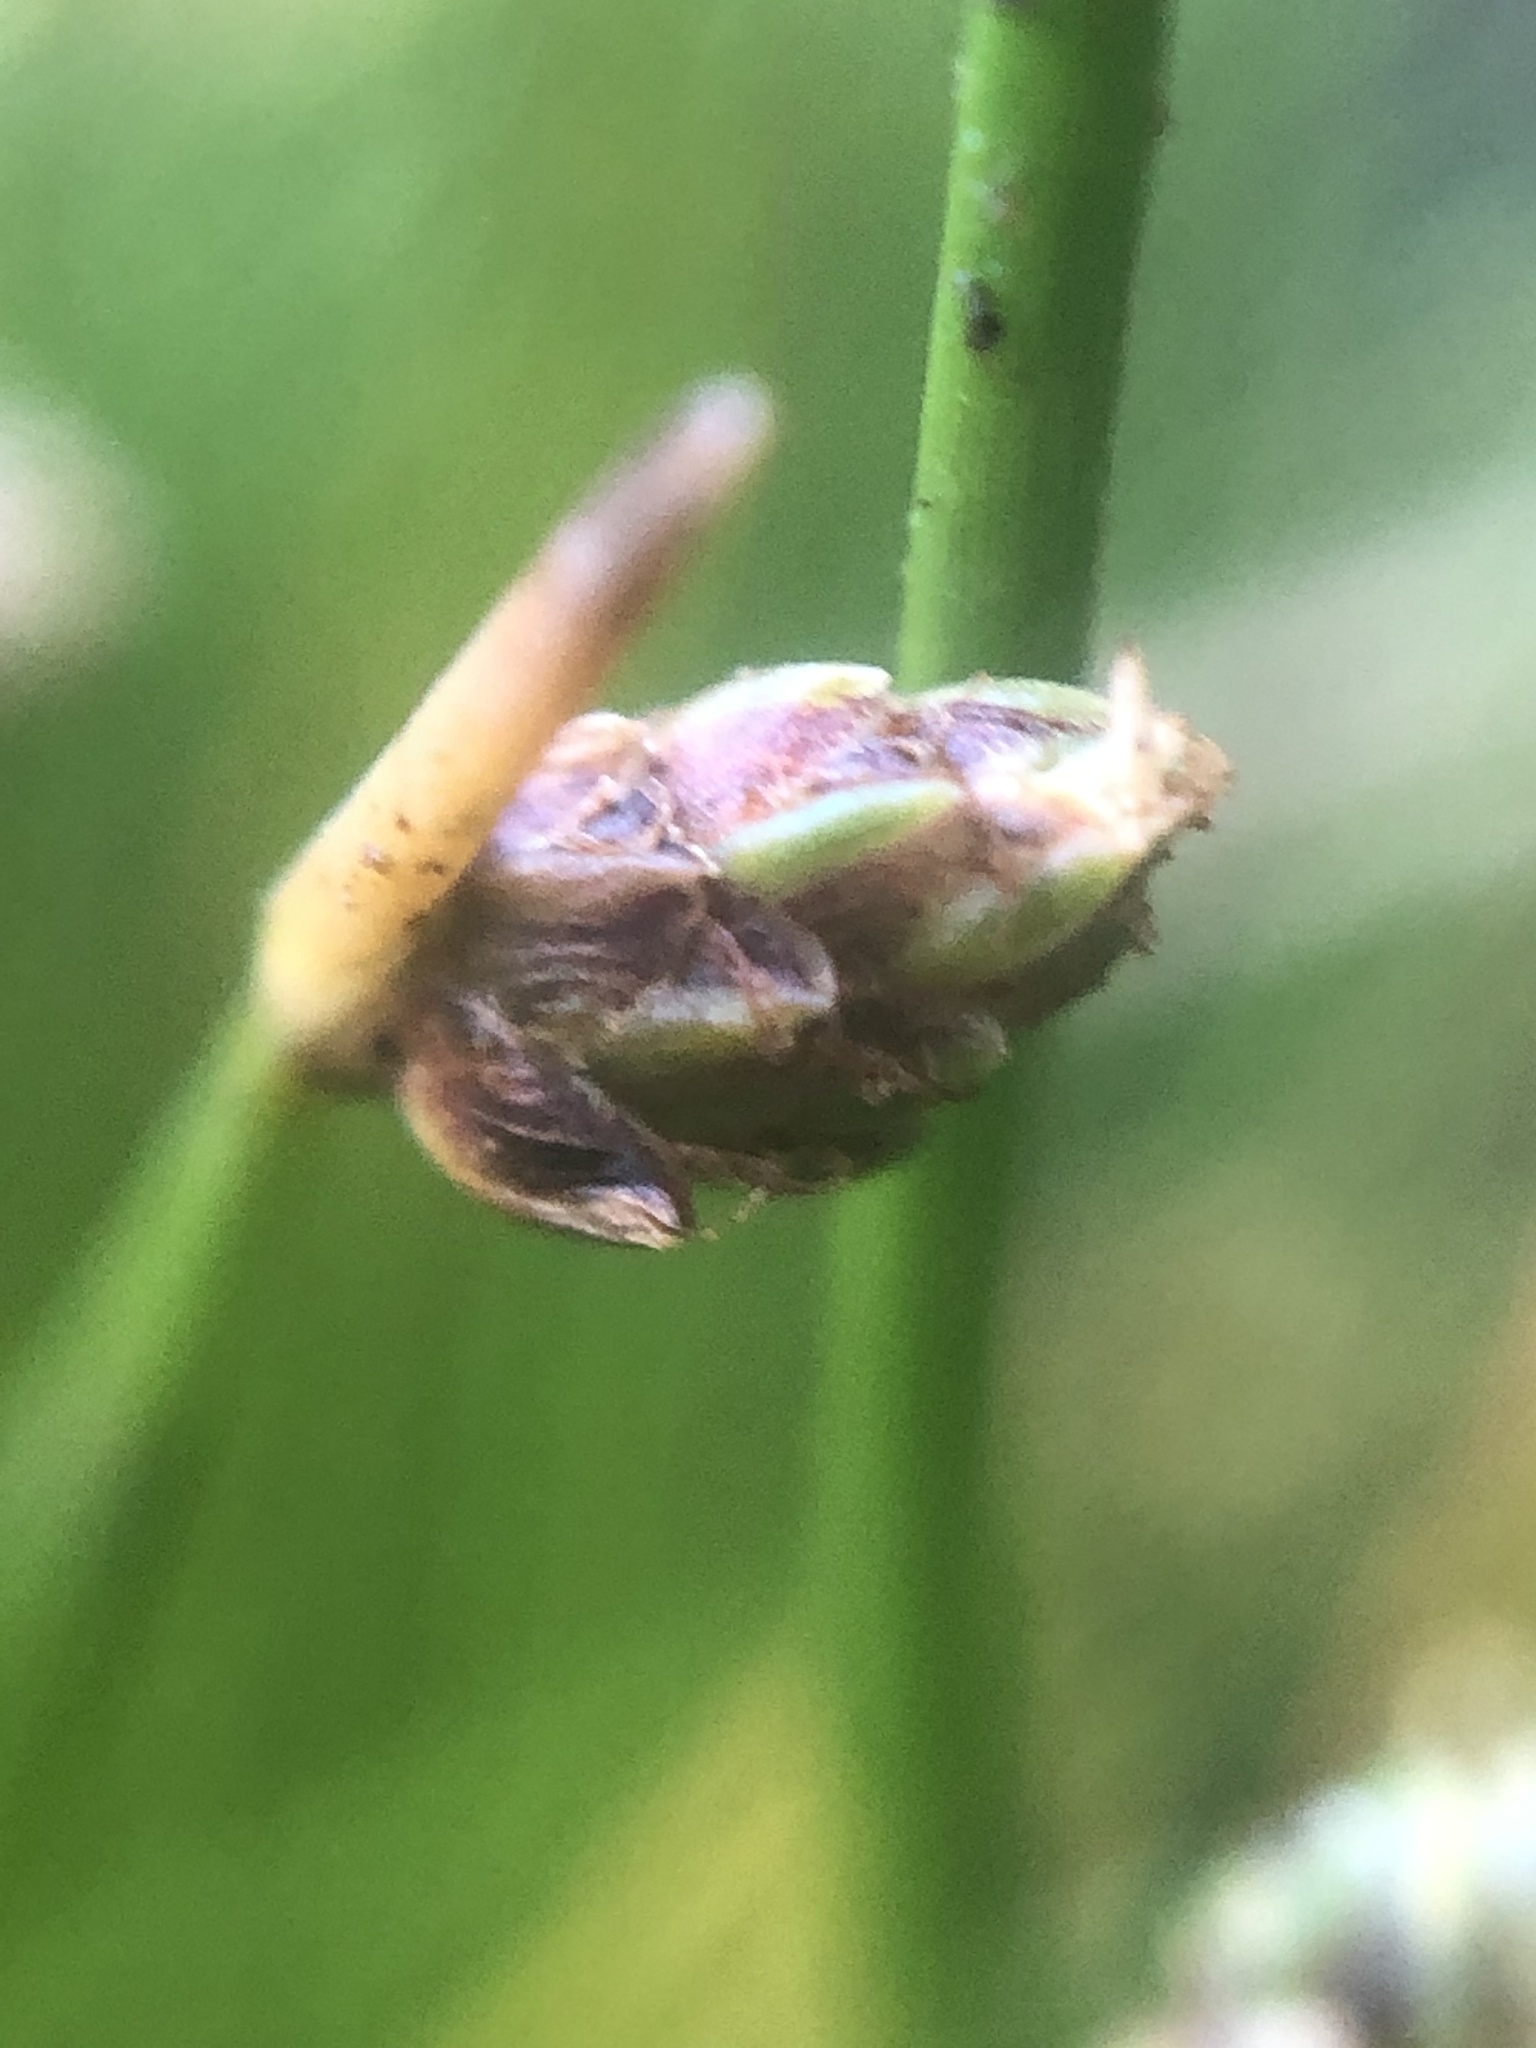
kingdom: Plantae
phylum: Tracheophyta
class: Liliopsida
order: Poales
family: Cyperaceae
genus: Isolepis
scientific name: Isolepis cernua
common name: Slender club-rush
